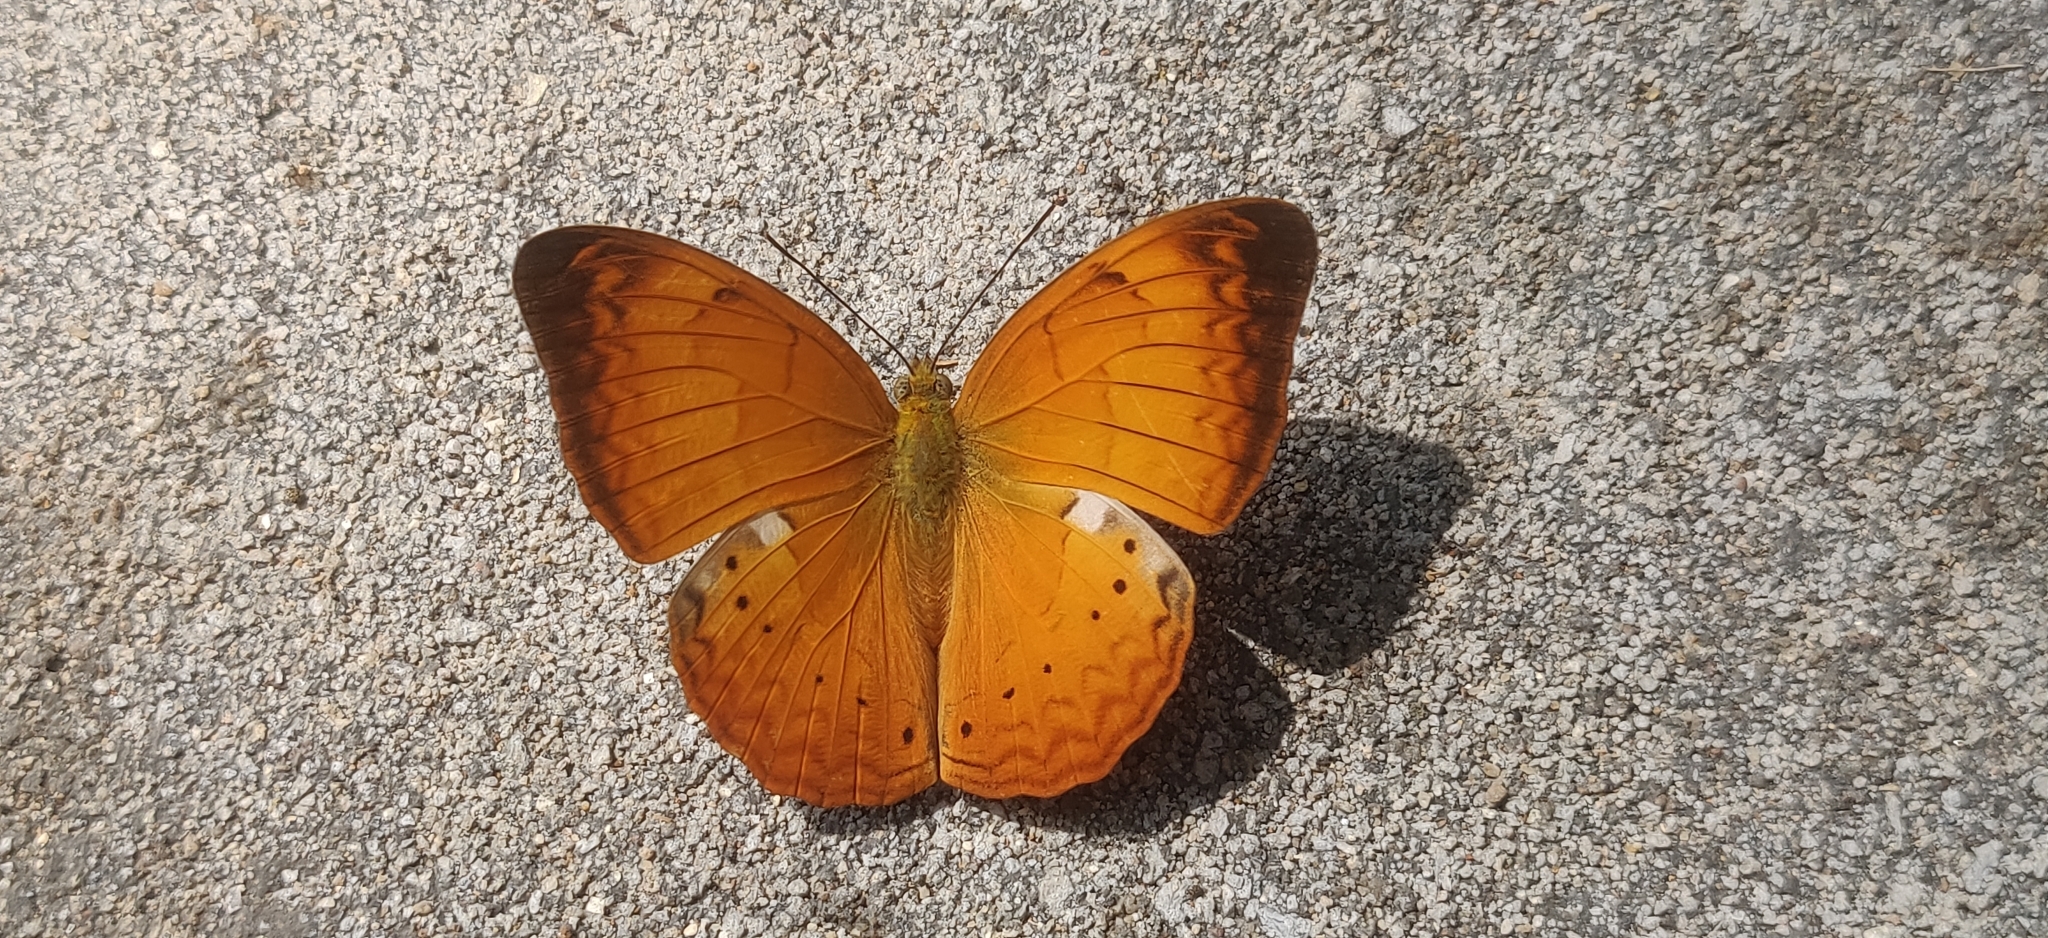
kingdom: Animalia
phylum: Arthropoda
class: Insecta
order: Lepidoptera
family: Nymphalidae
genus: Cirrochroa
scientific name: Cirrochroa thais
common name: Tamil yeoman
